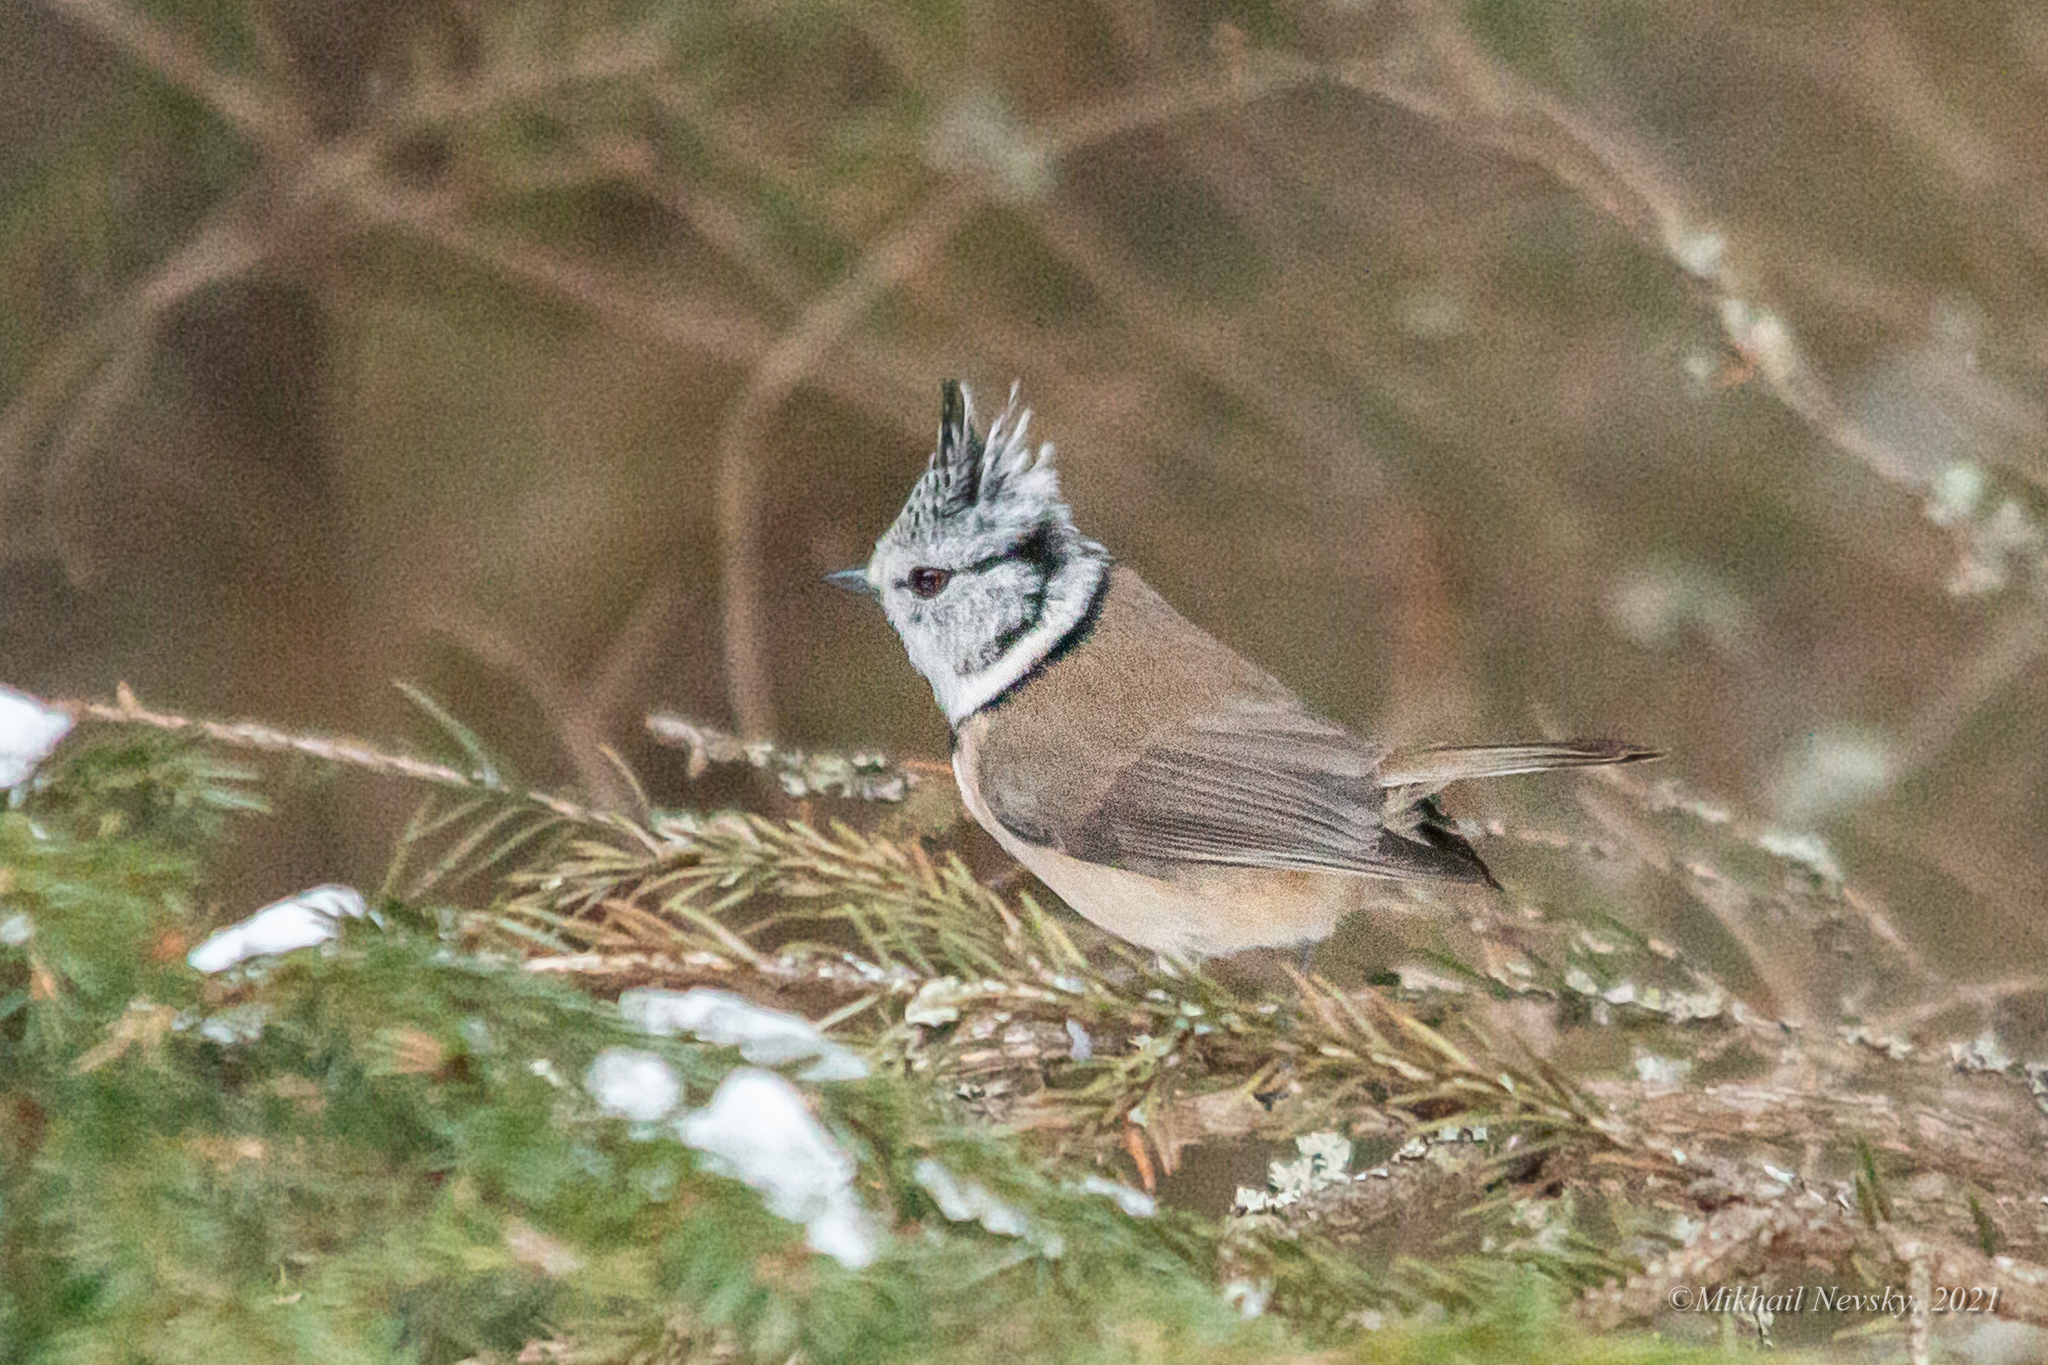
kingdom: Animalia
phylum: Chordata
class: Aves
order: Passeriformes
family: Paridae
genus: Lophophanes
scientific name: Lophophanes cristatus
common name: European crested tit
